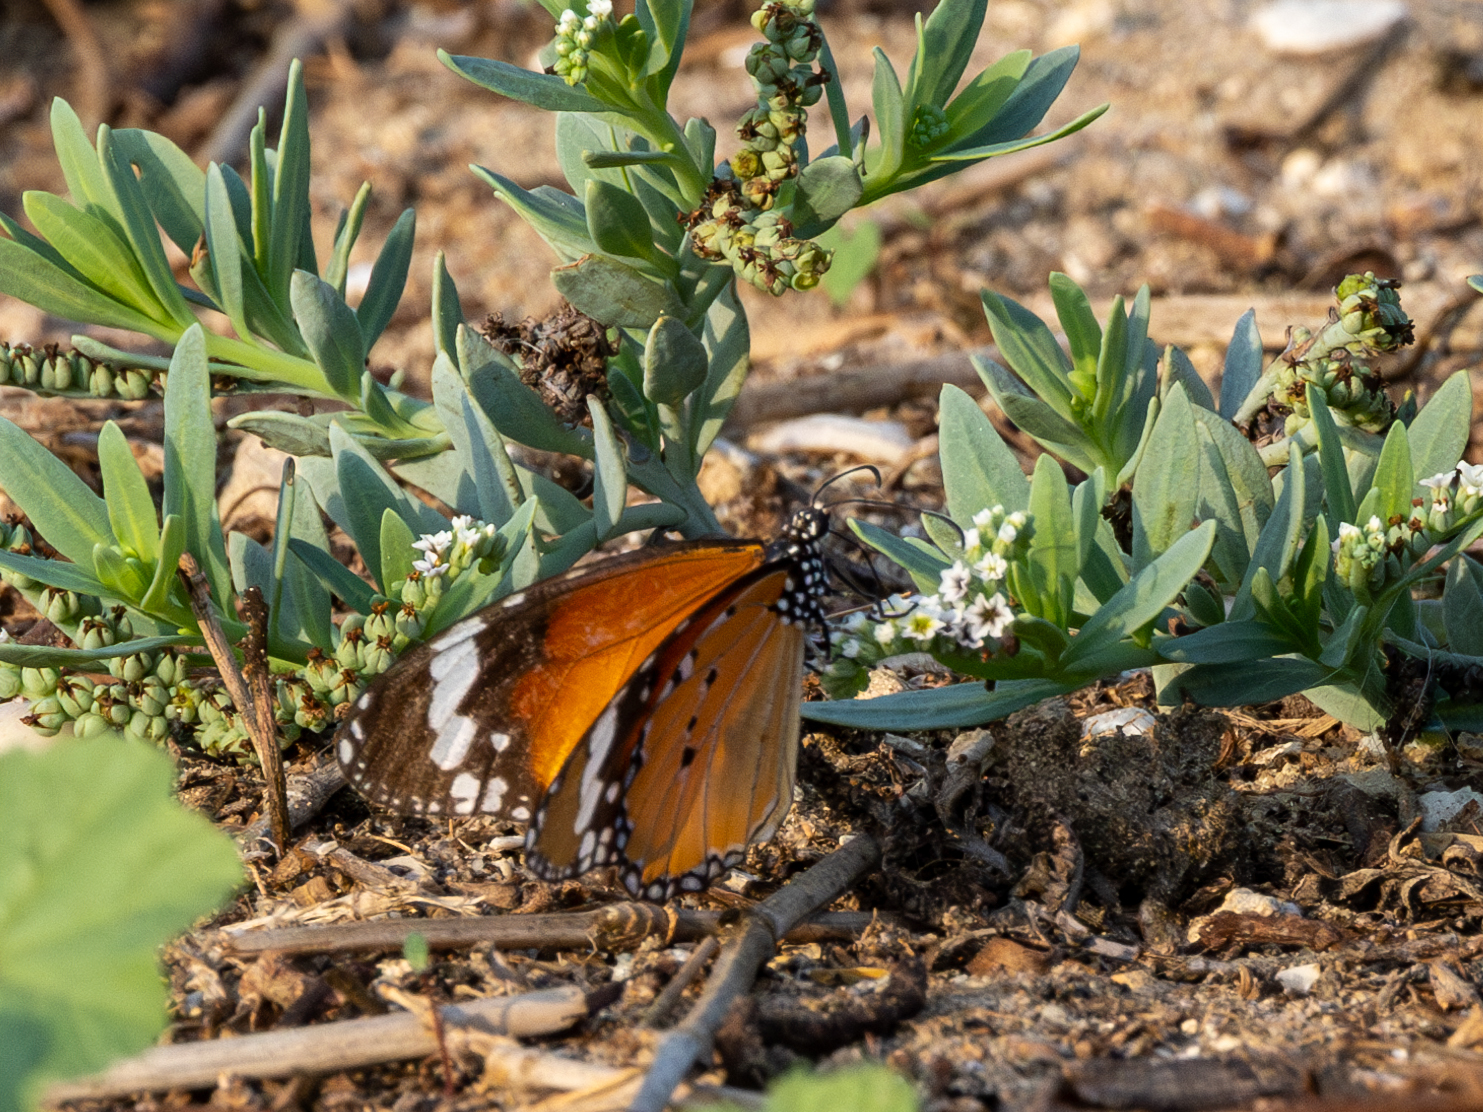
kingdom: Animalia
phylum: Arthropoda
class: Insecta
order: Lepidoptera
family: Nymphalidae
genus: Danaus
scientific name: Danaus chrysippus
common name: Plain tiger
